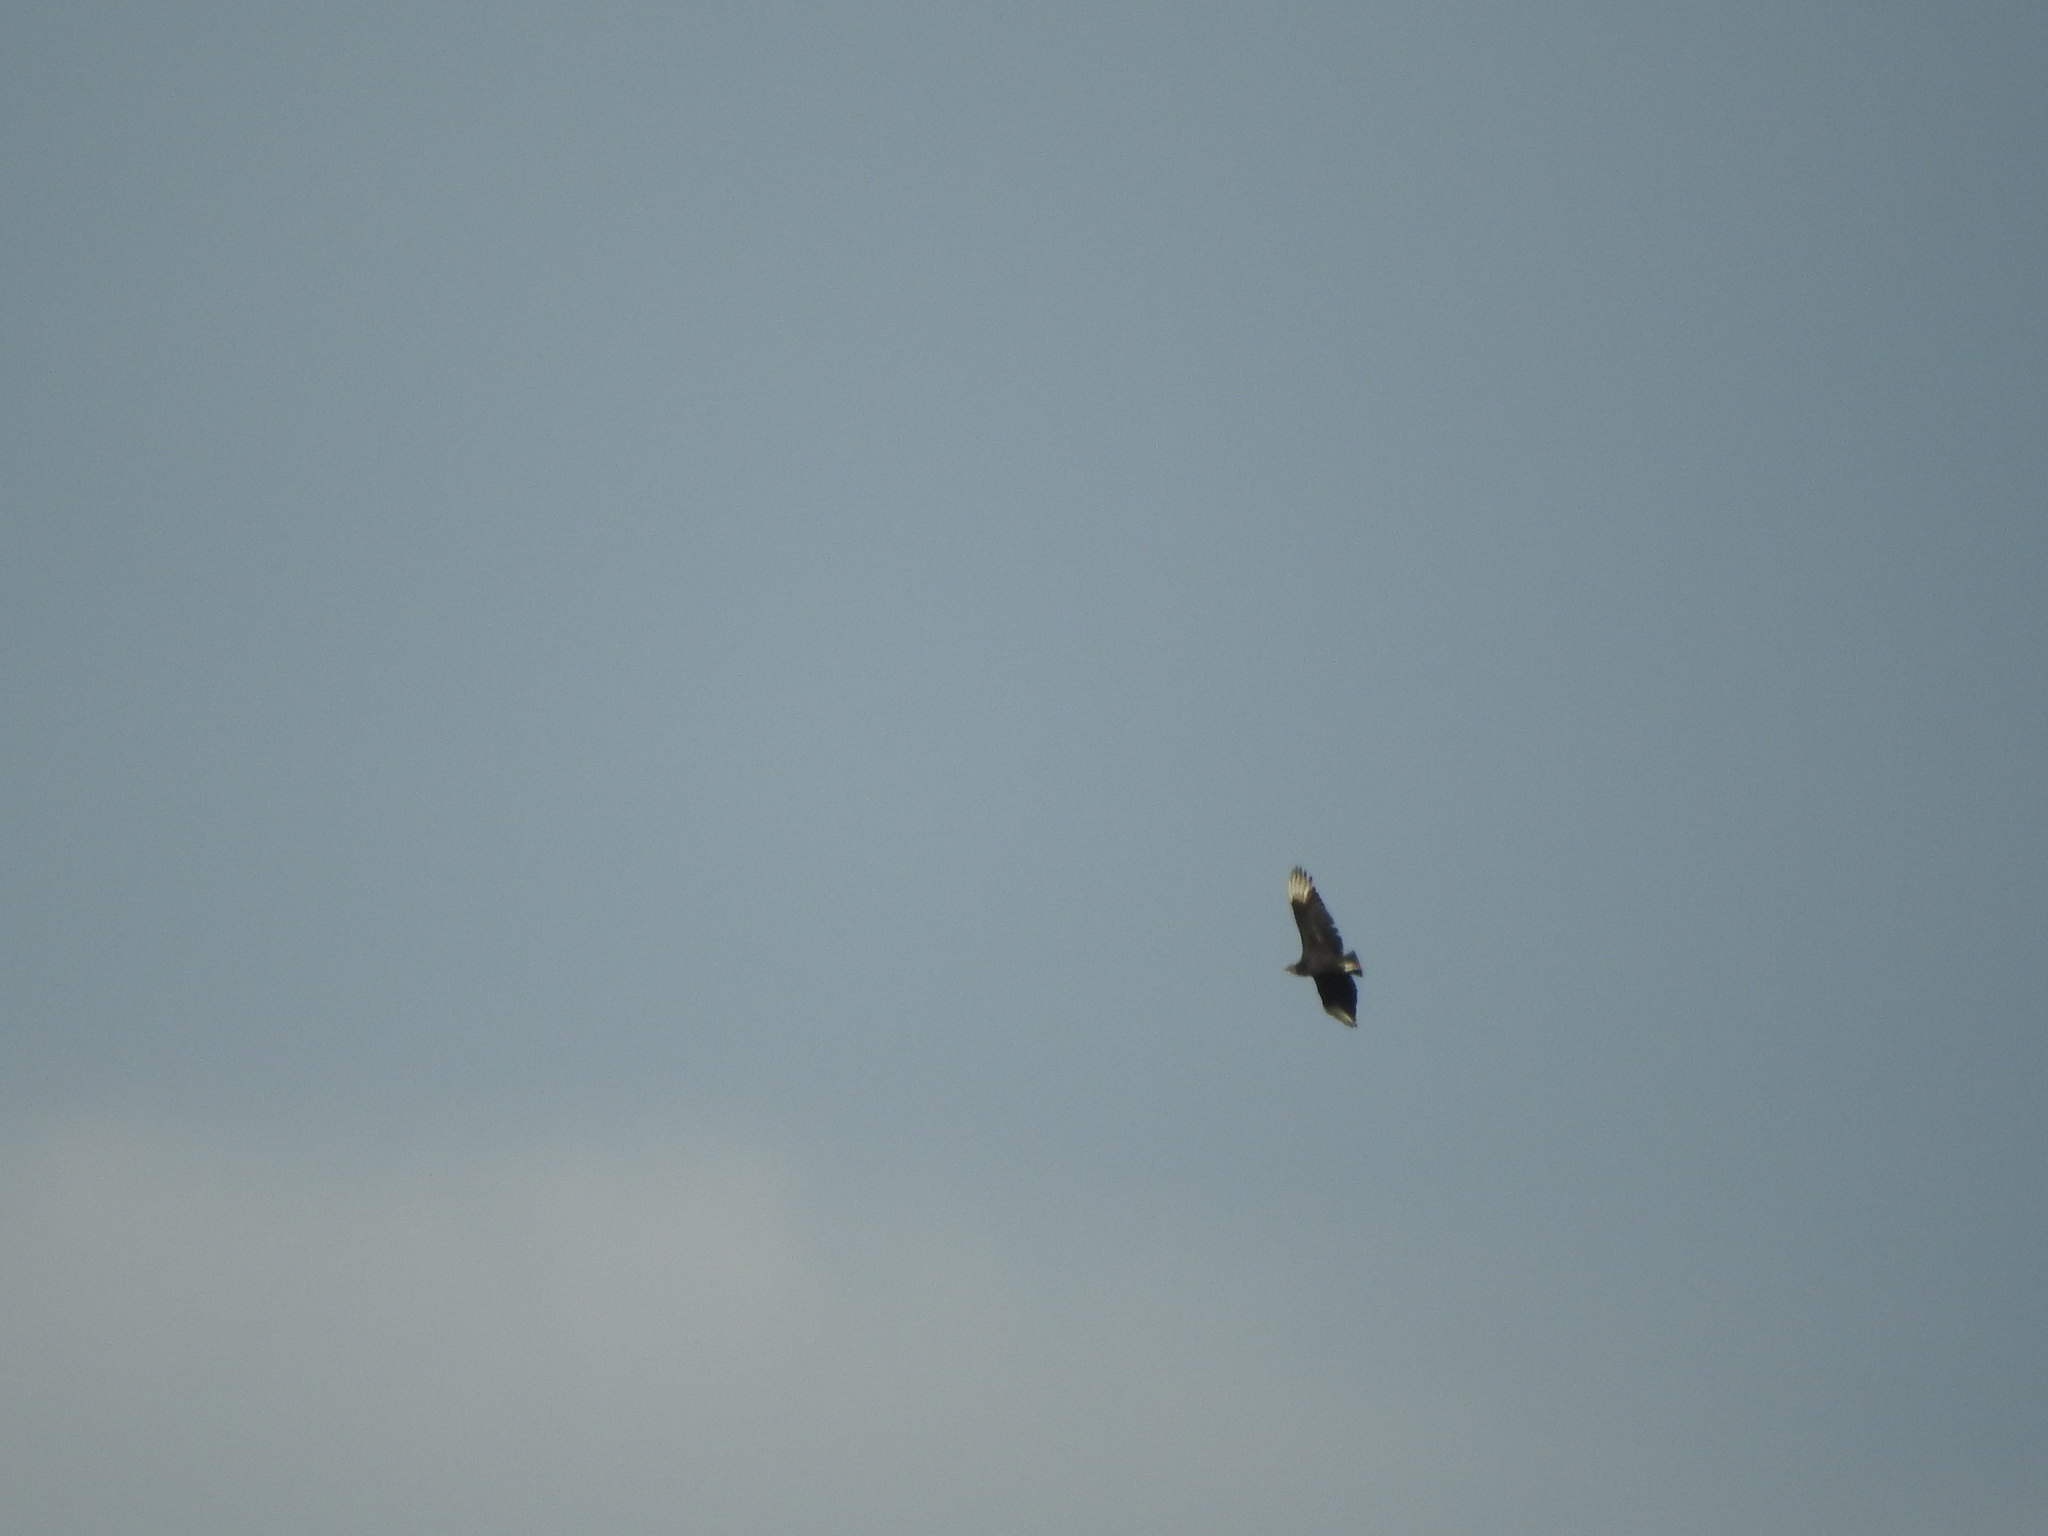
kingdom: Animalia
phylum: Chordata
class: Aves
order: Accipitriformes
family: Cathartidae
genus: Coragyps
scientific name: Coragyps atratus
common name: Black vulture
